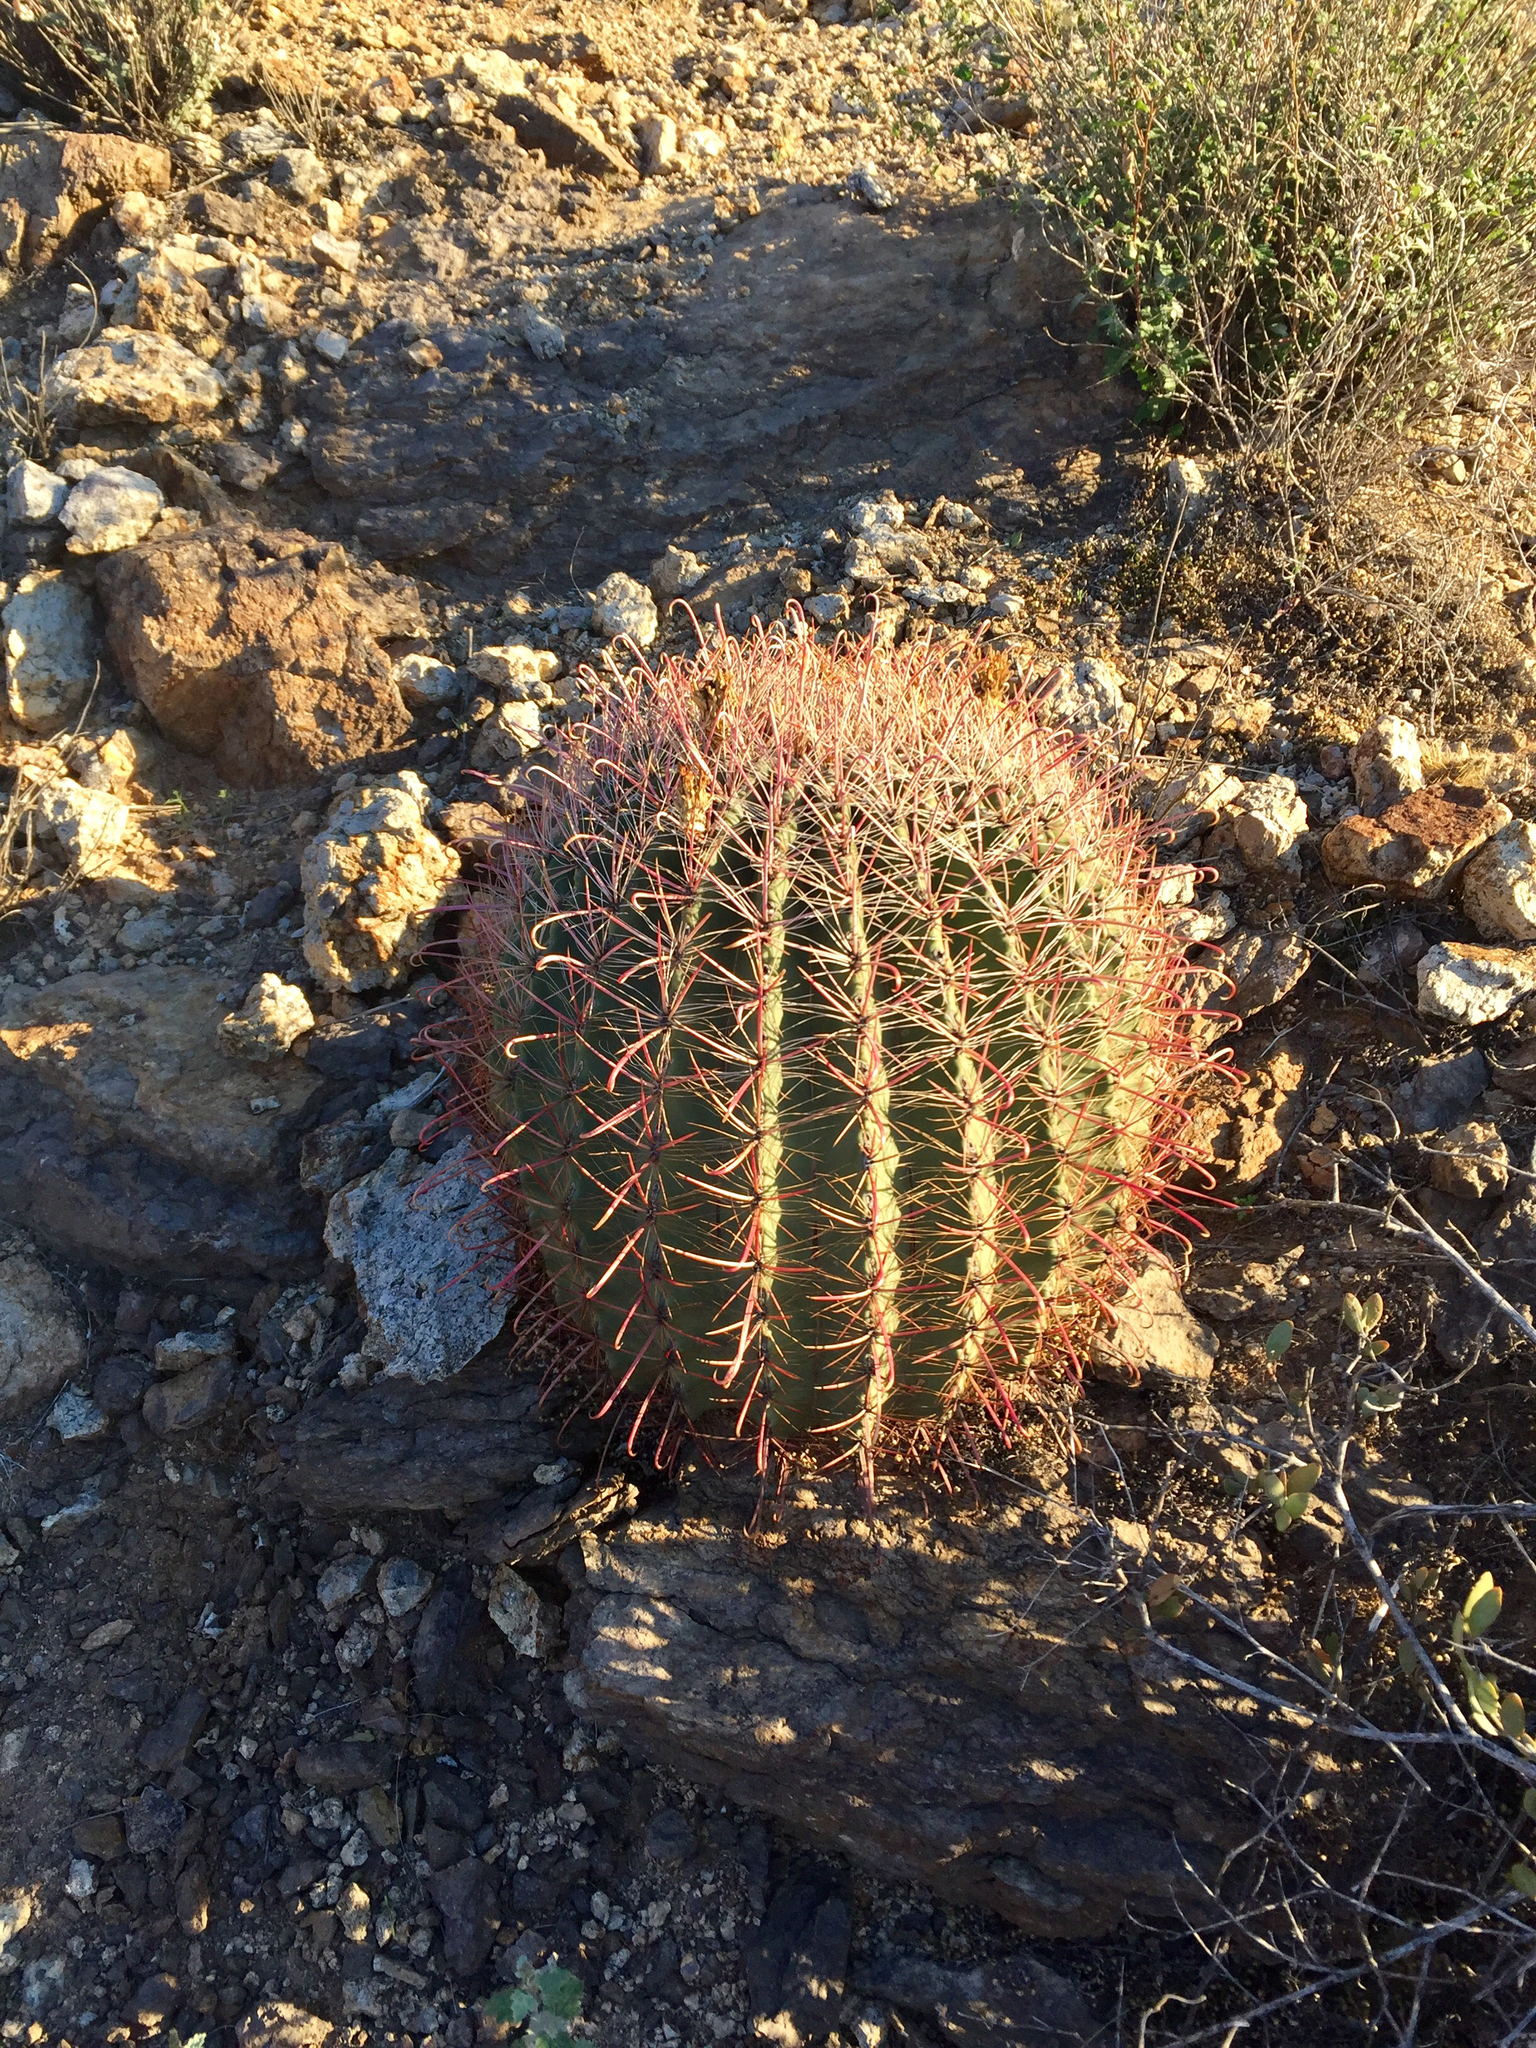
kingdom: Plantae
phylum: Tracheophyta
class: Magnoliopsida
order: Caryophyllales
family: Cactaceae
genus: Ferocactus
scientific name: Ferocactus wislizeni
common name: Candy barrel cactus
